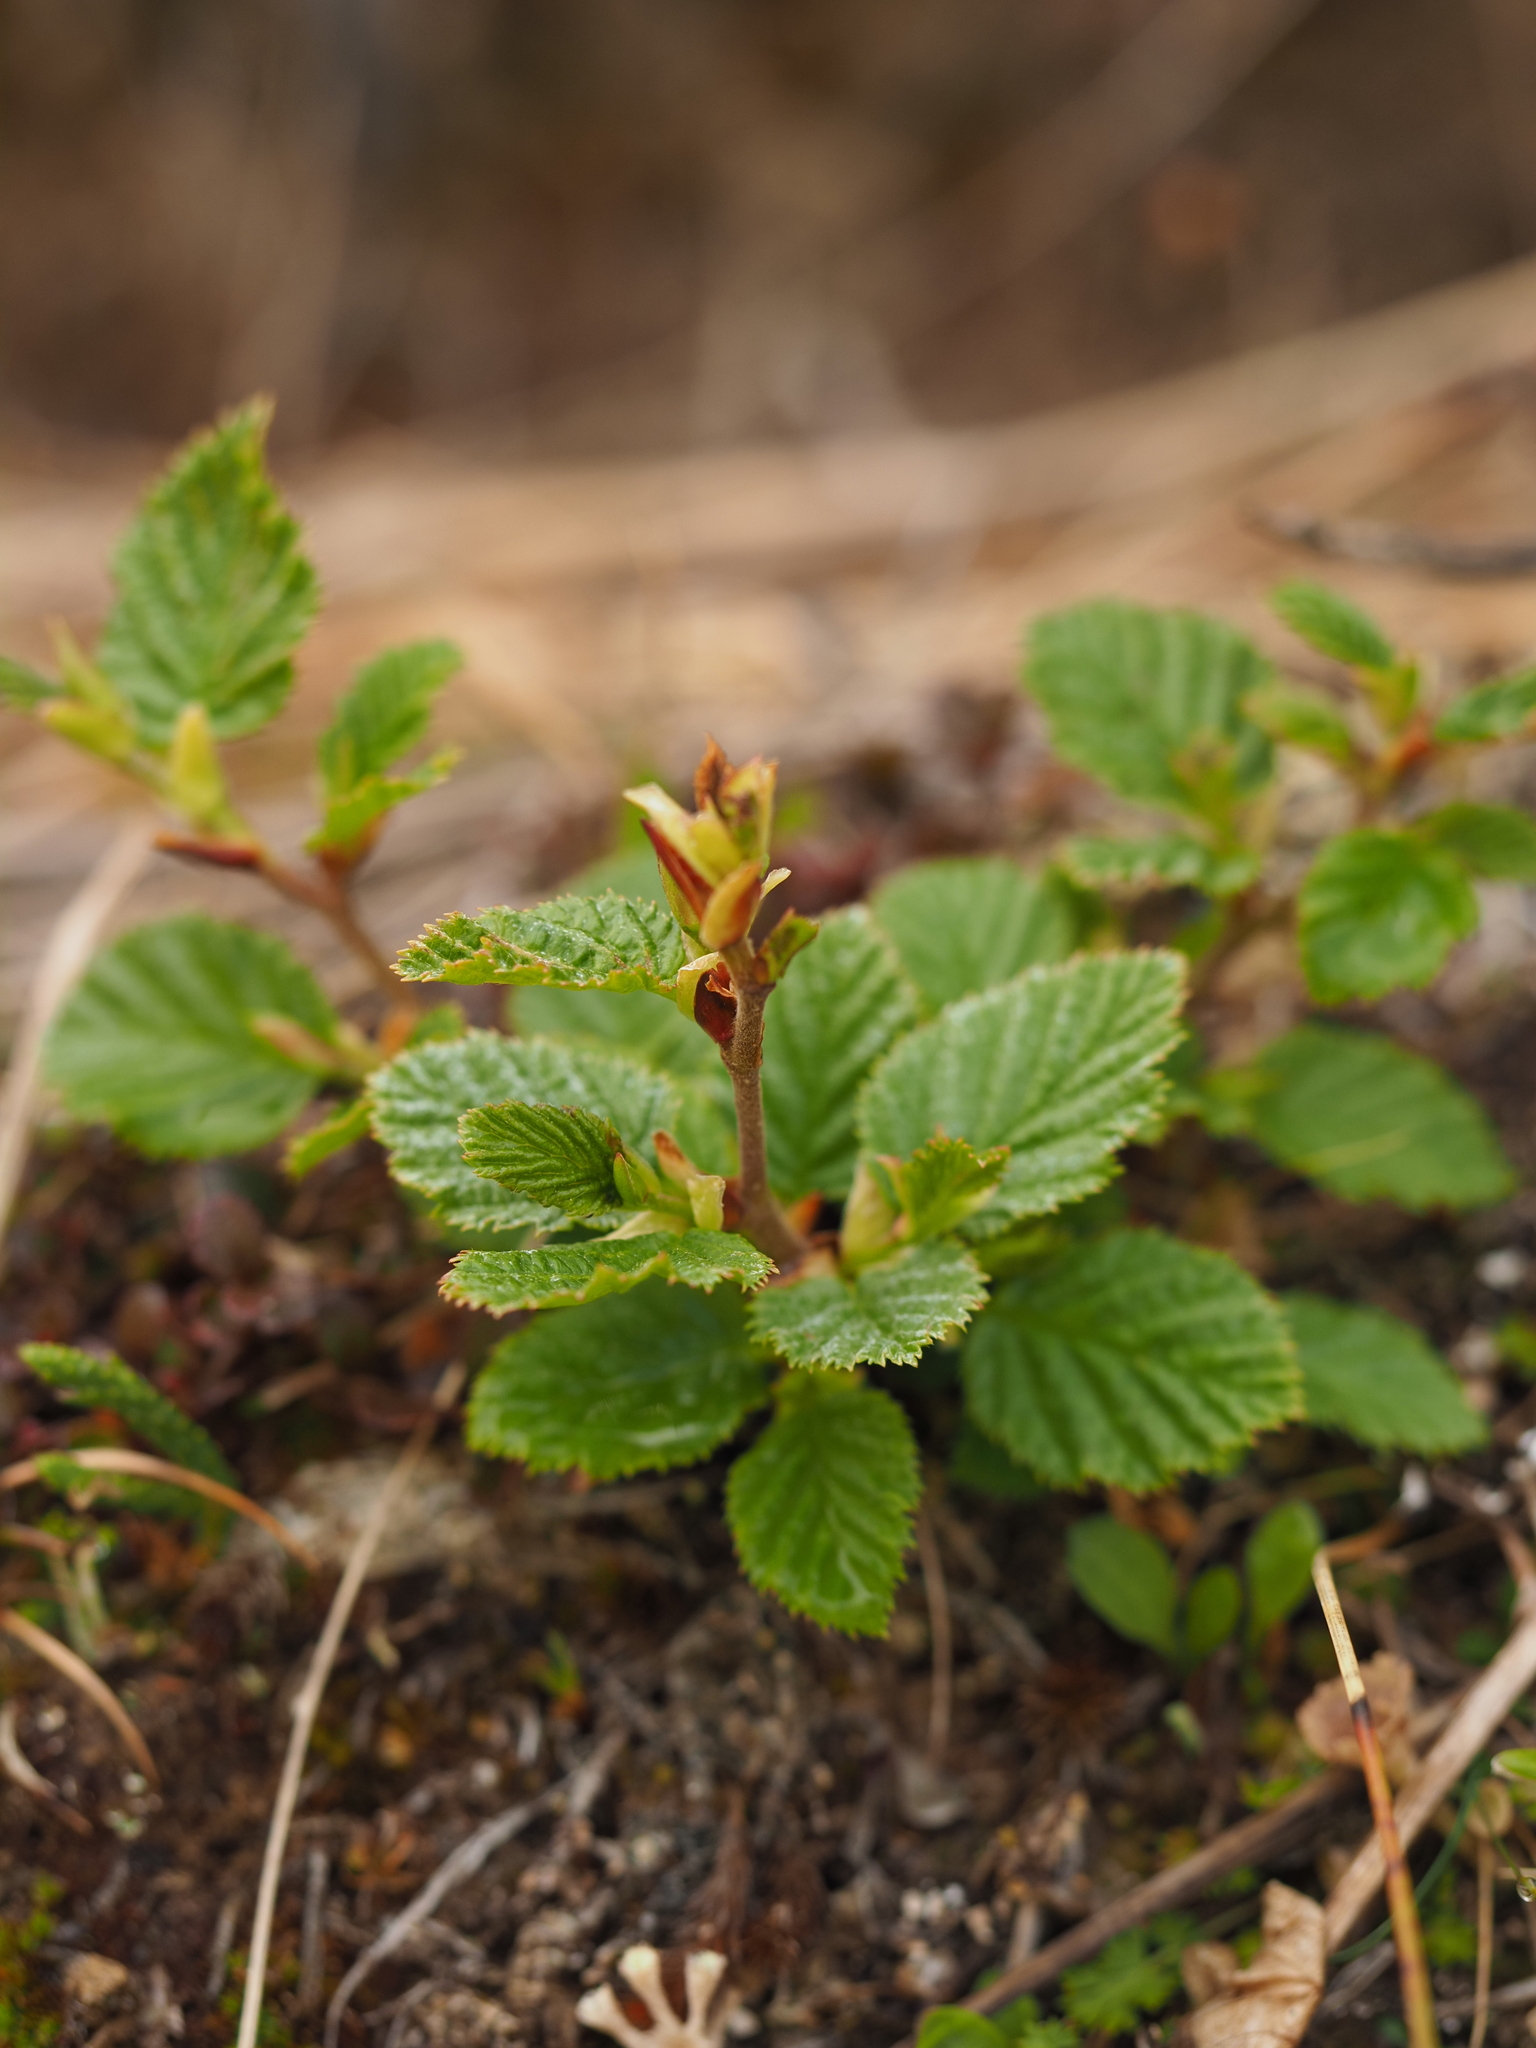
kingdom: Plantae
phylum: Tracheophyta
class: Magnoliopsida
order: Fagales
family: Betulaceae
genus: Alnus
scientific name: Alnus alnobetula
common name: Green alder
